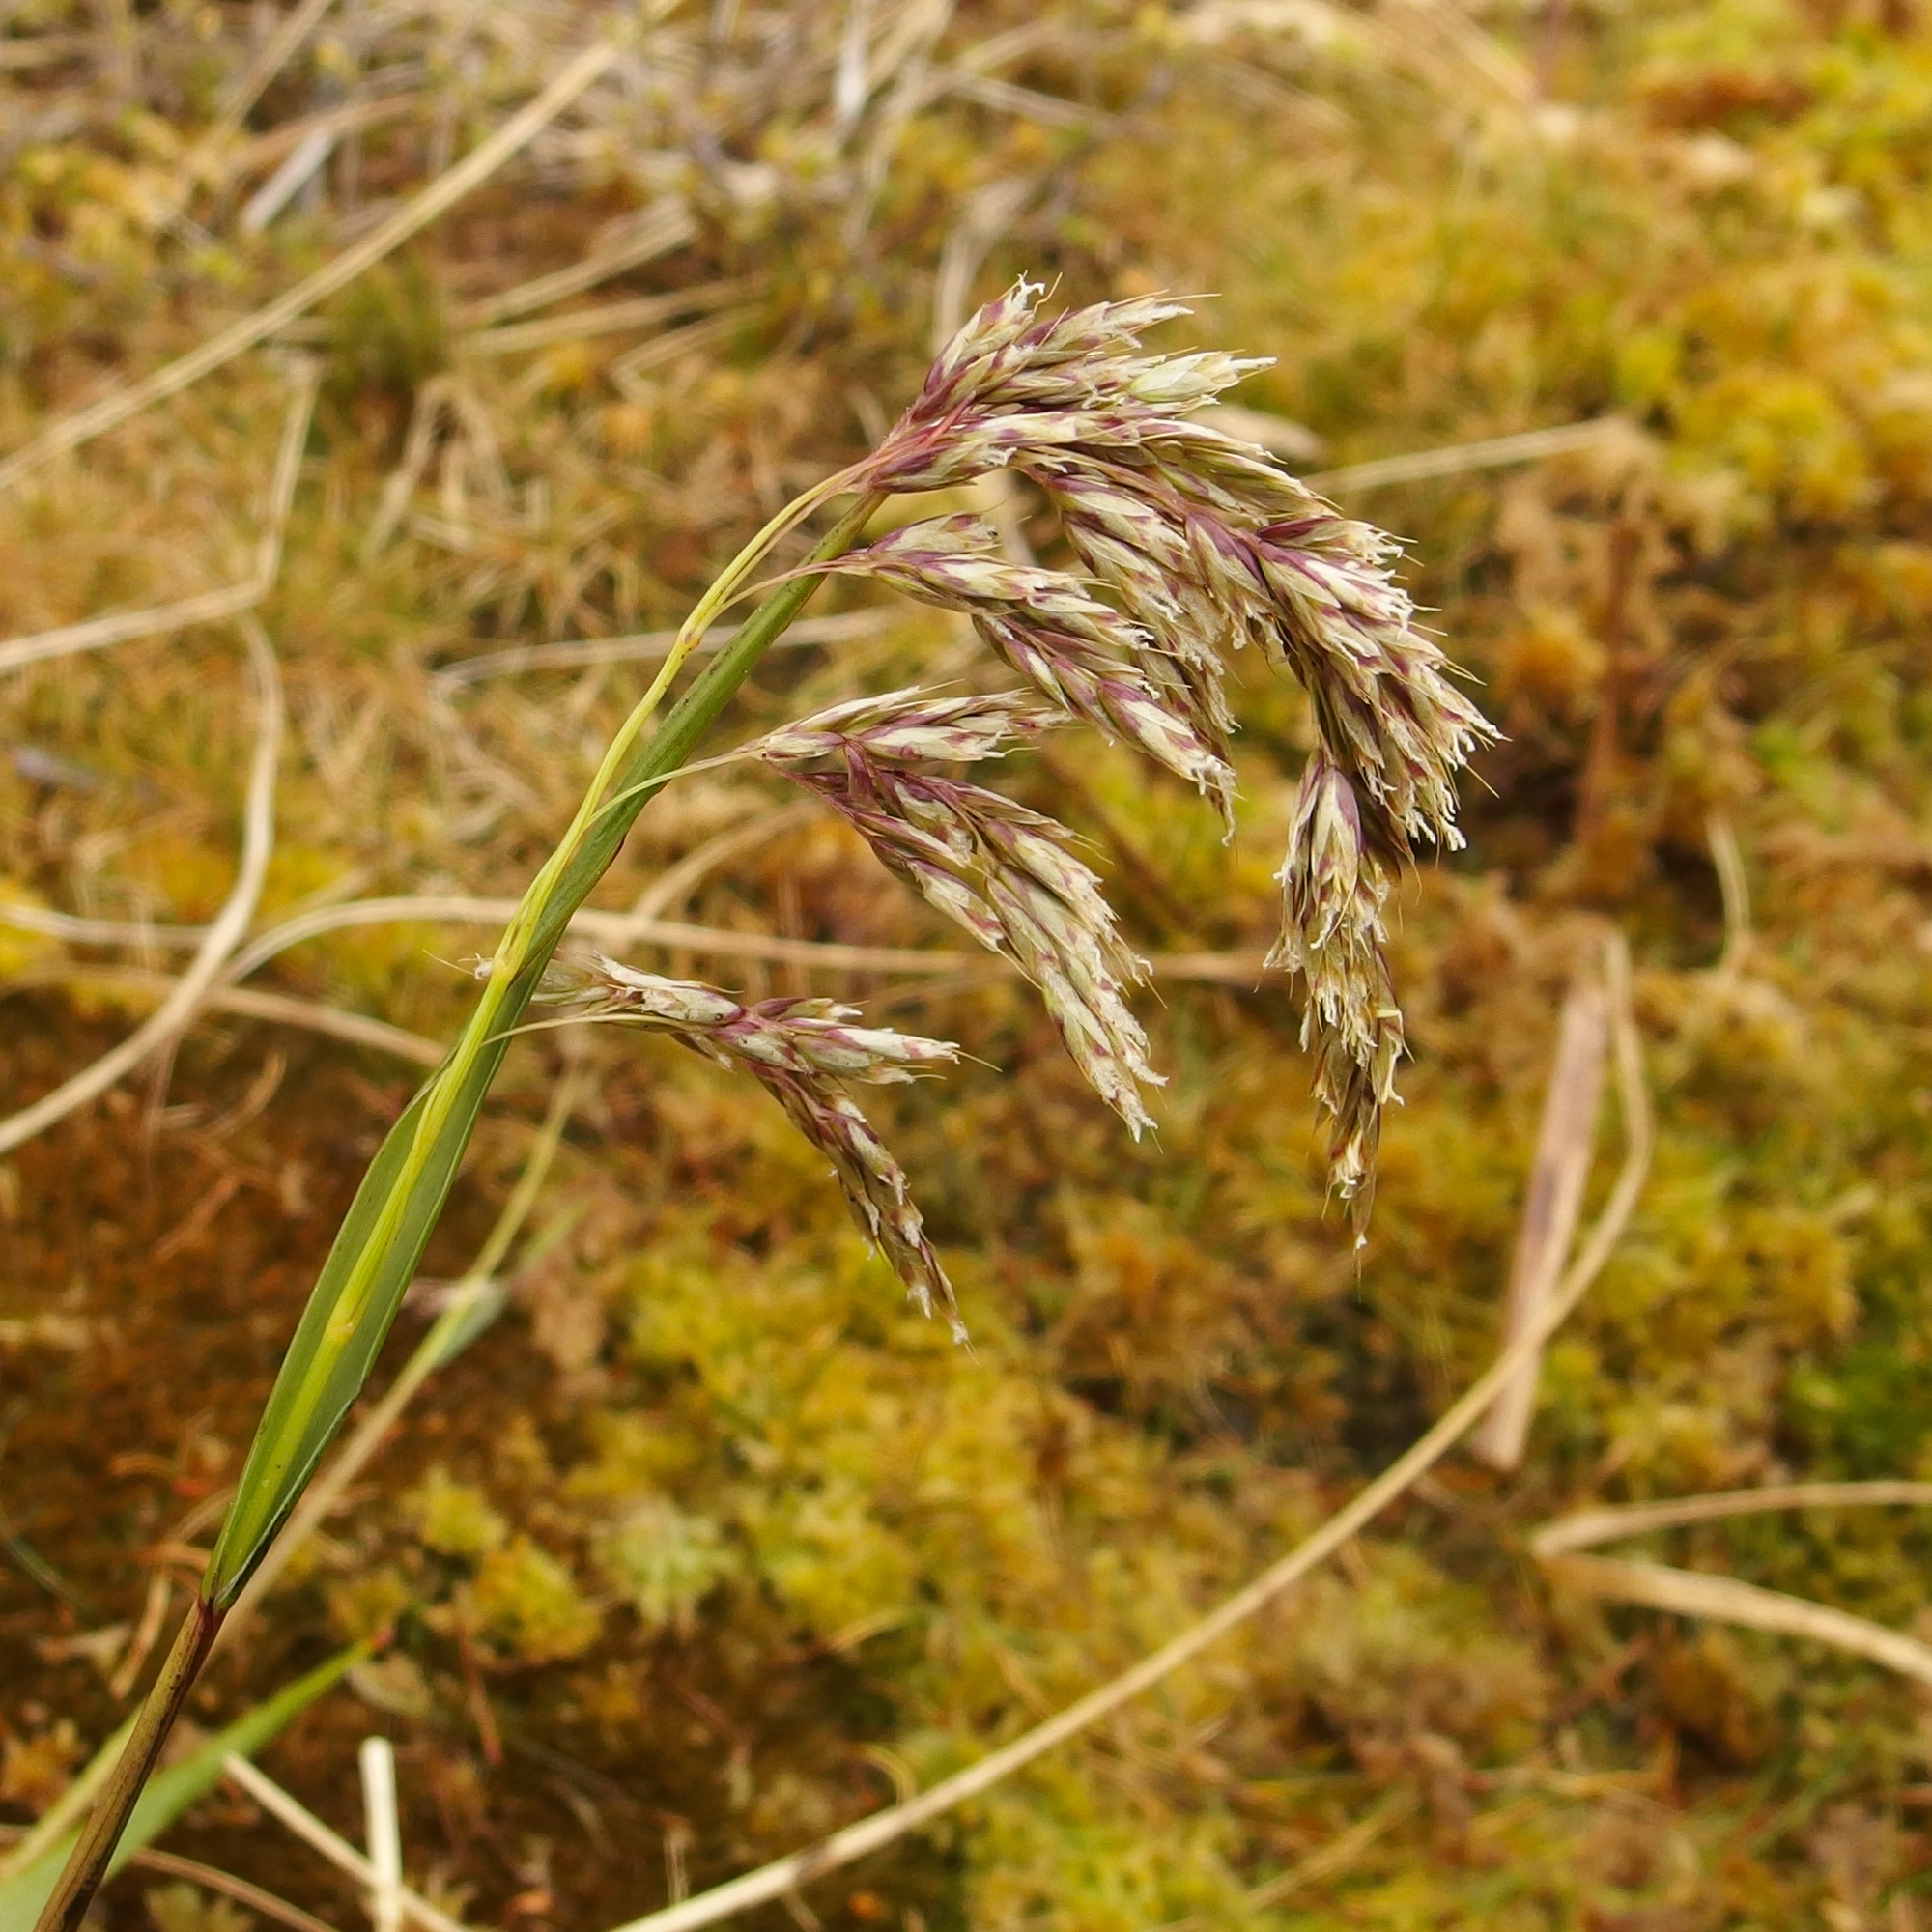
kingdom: Plantae
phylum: Tracheophyta
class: Liliopsida
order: Poales
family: Poaceae
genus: Anthoxanthum
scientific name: Anthoxanthum fuscum
